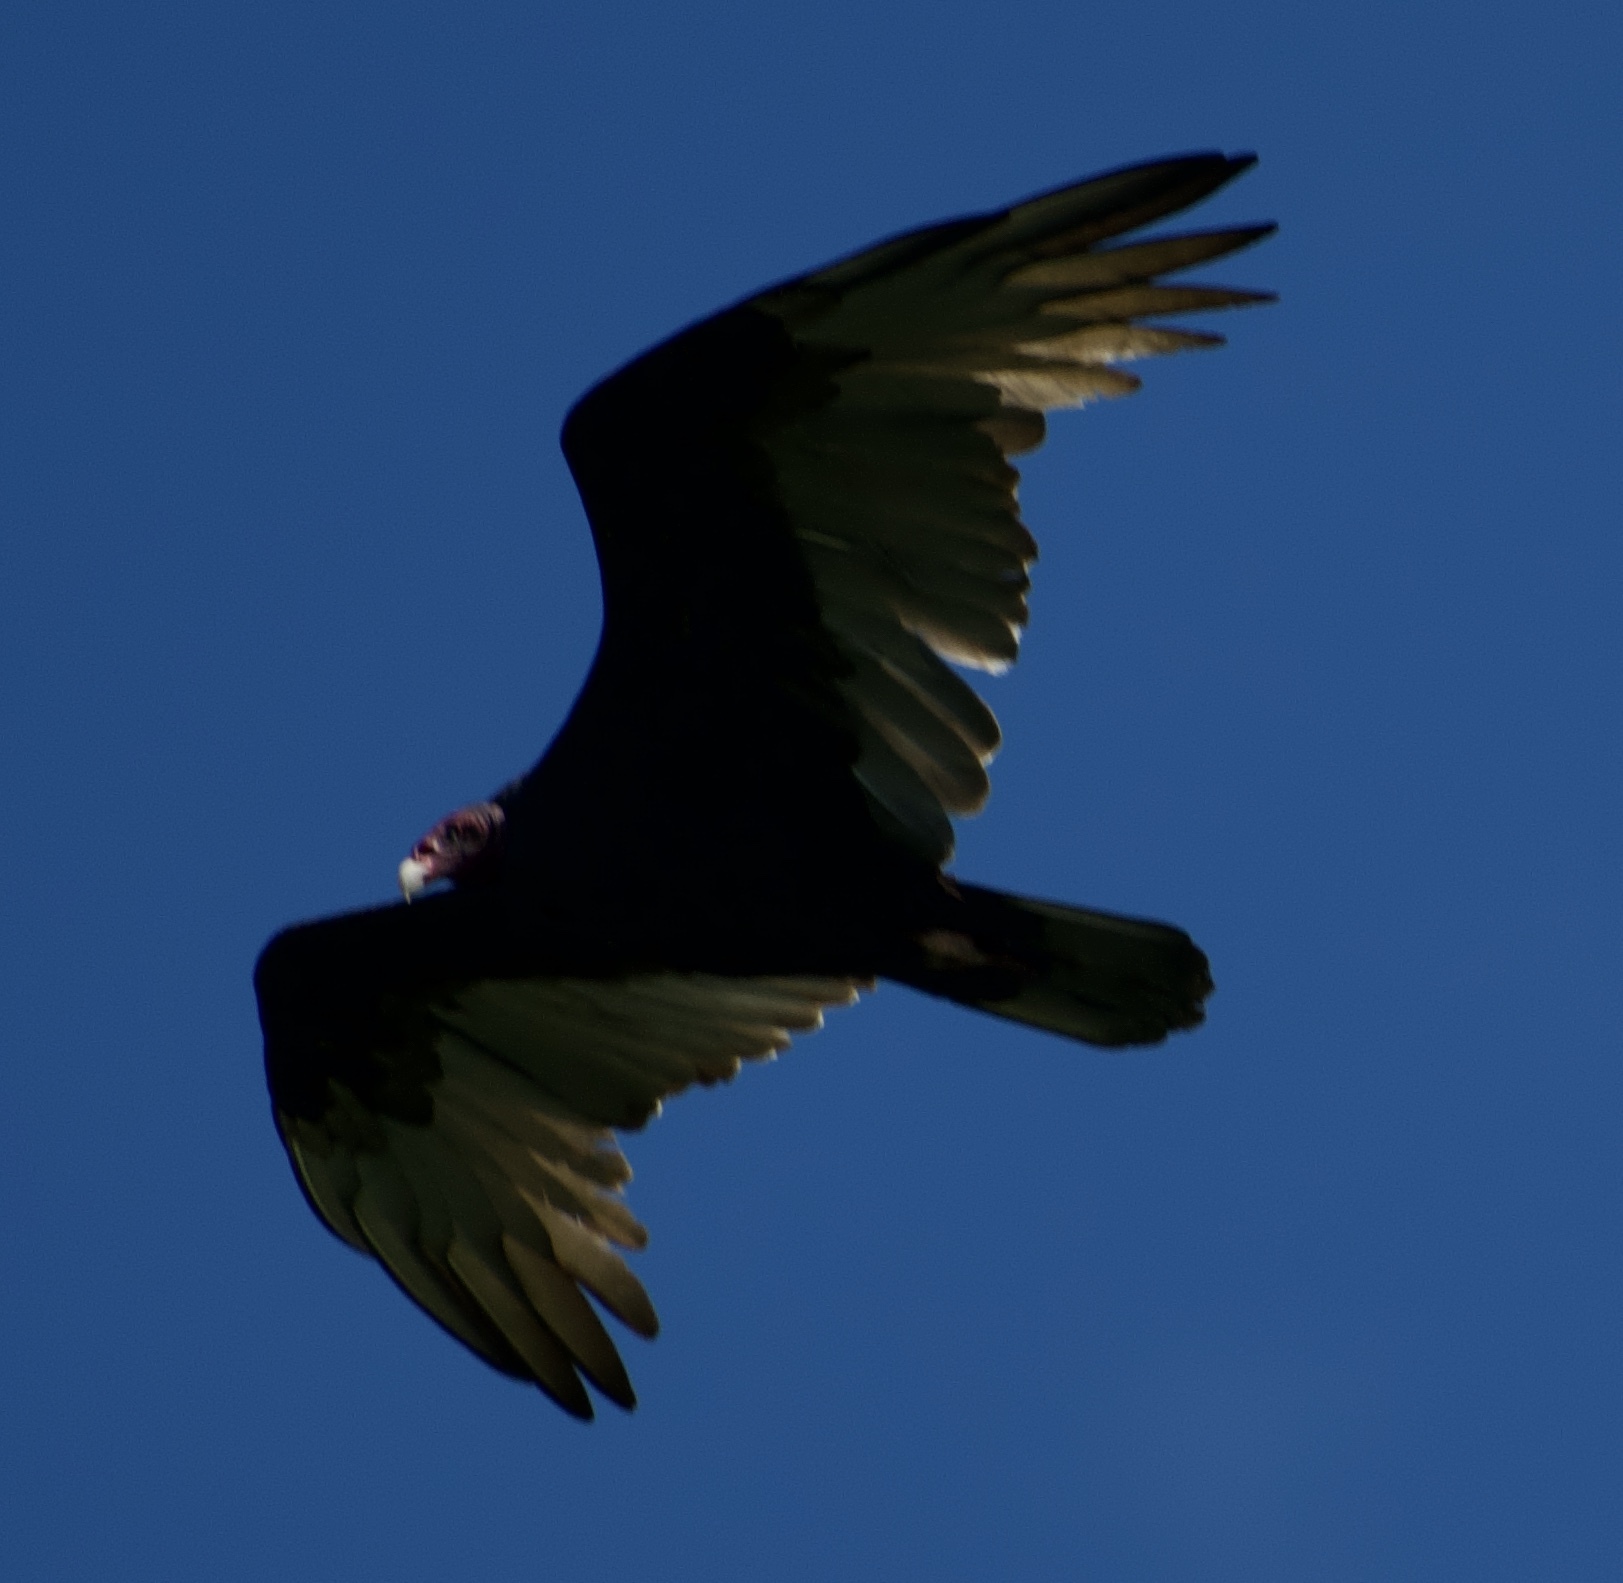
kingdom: Animalia
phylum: Chordata
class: Aves
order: Accipitriformes
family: Cathartidae
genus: Cathartes
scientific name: Cathartes aura
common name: Turkey vulture
